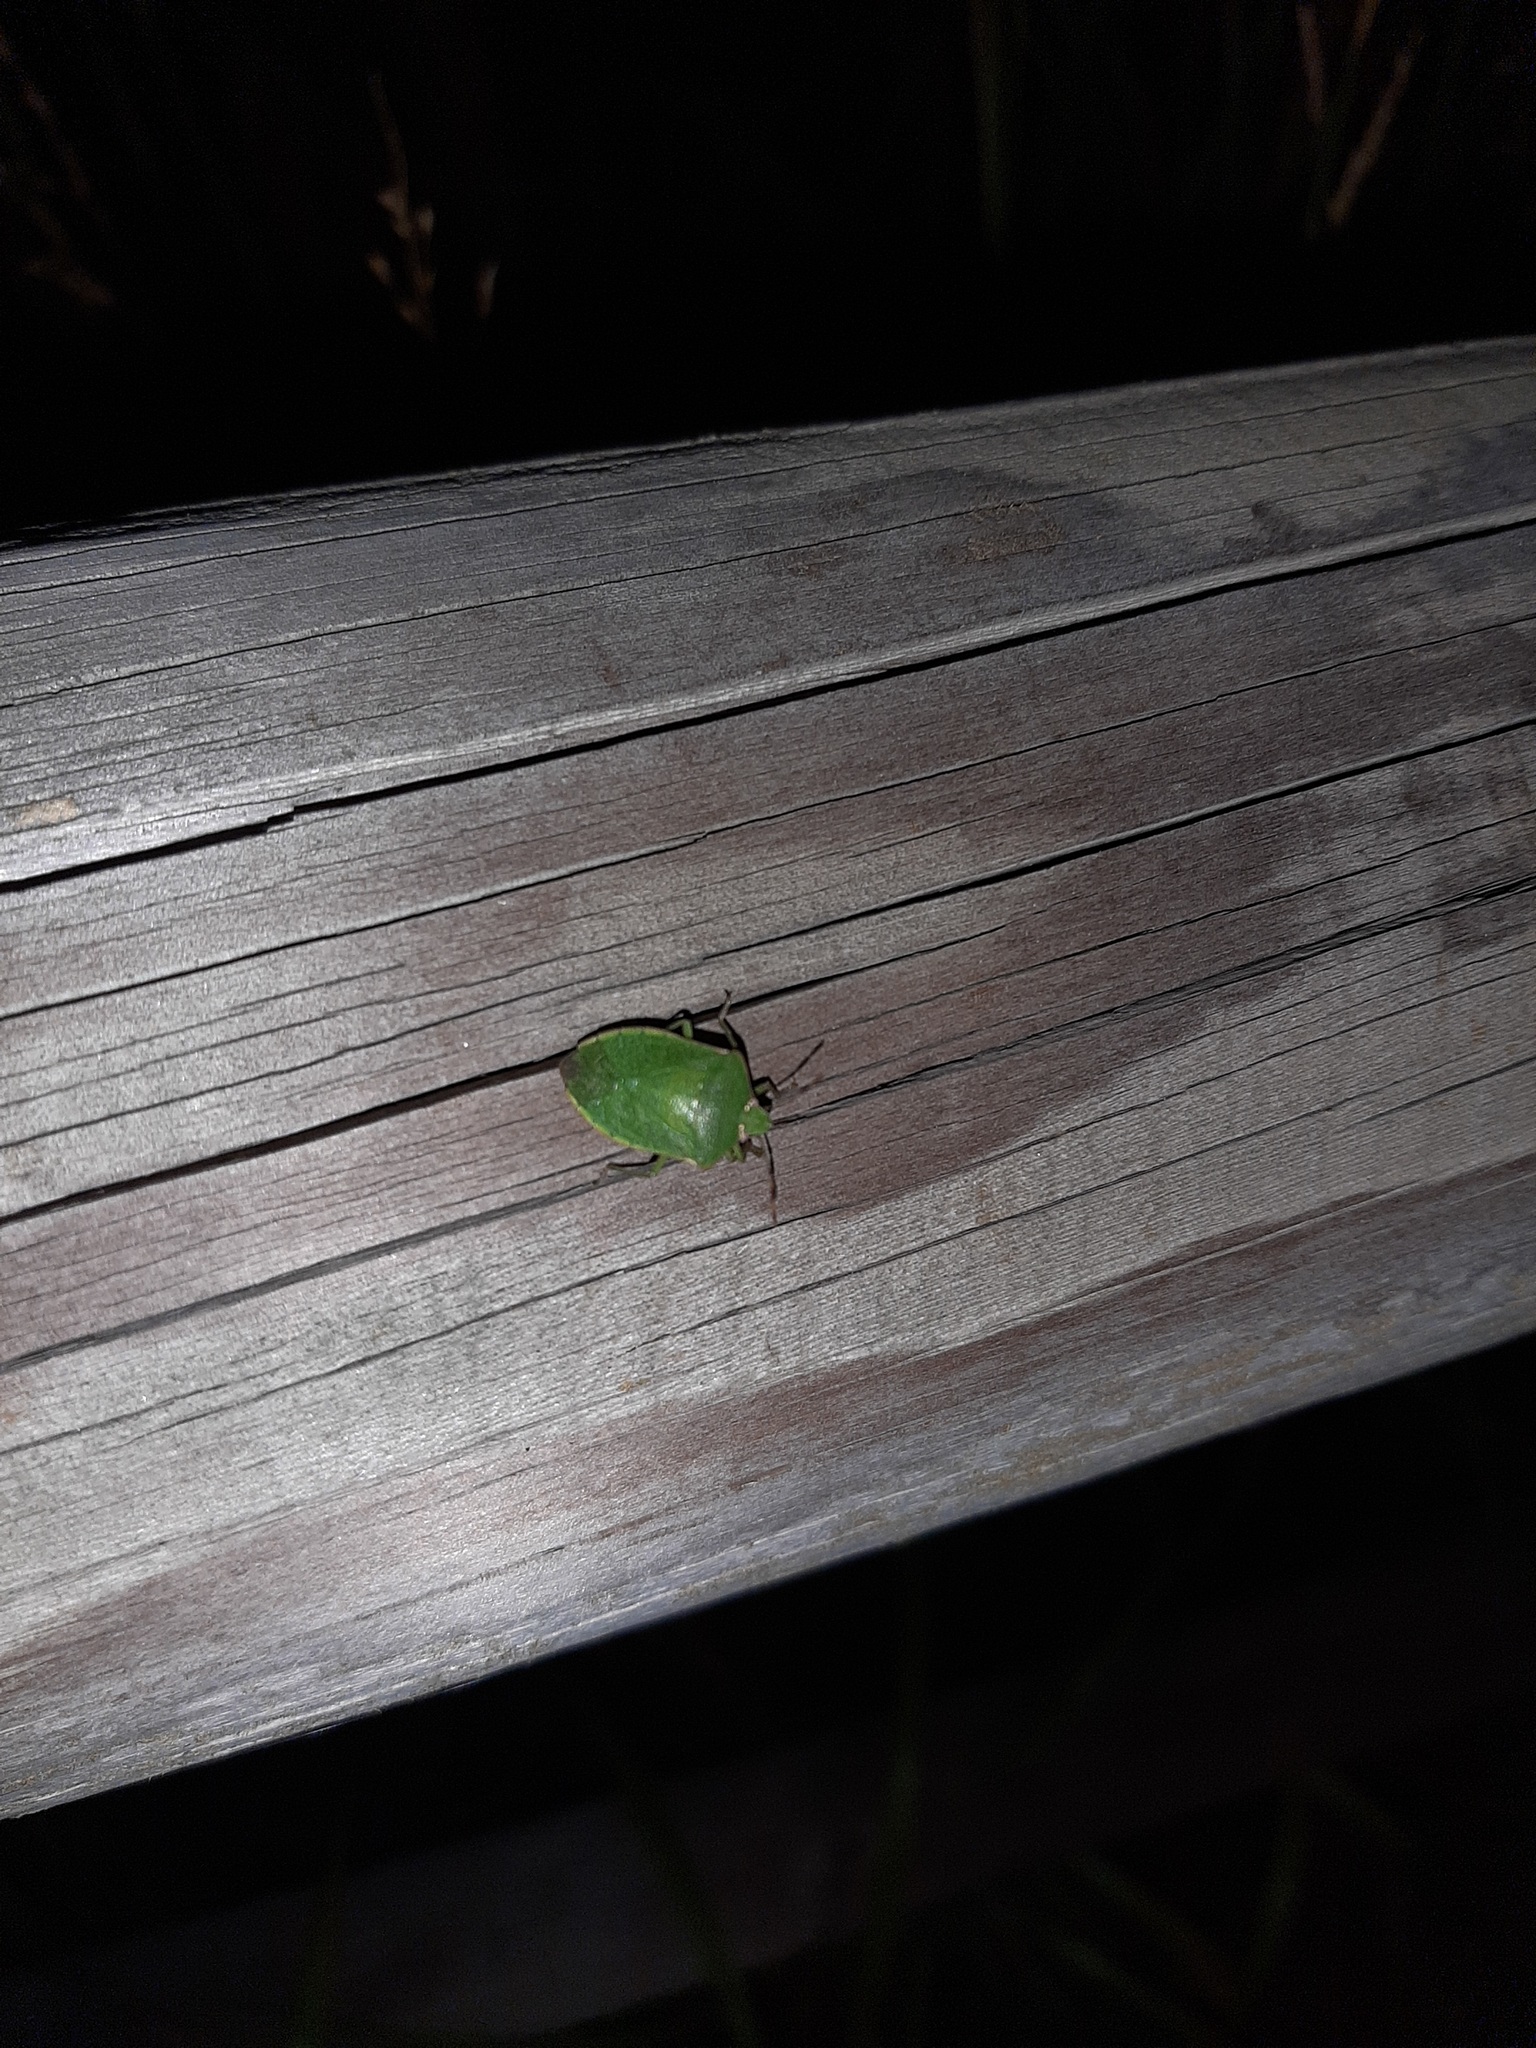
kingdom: Animalia
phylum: Arthropoda
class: Insecta
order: Hemiptera
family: Pentatomidae
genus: Nezara
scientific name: Nezara viridula
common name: Southern green stink bug
